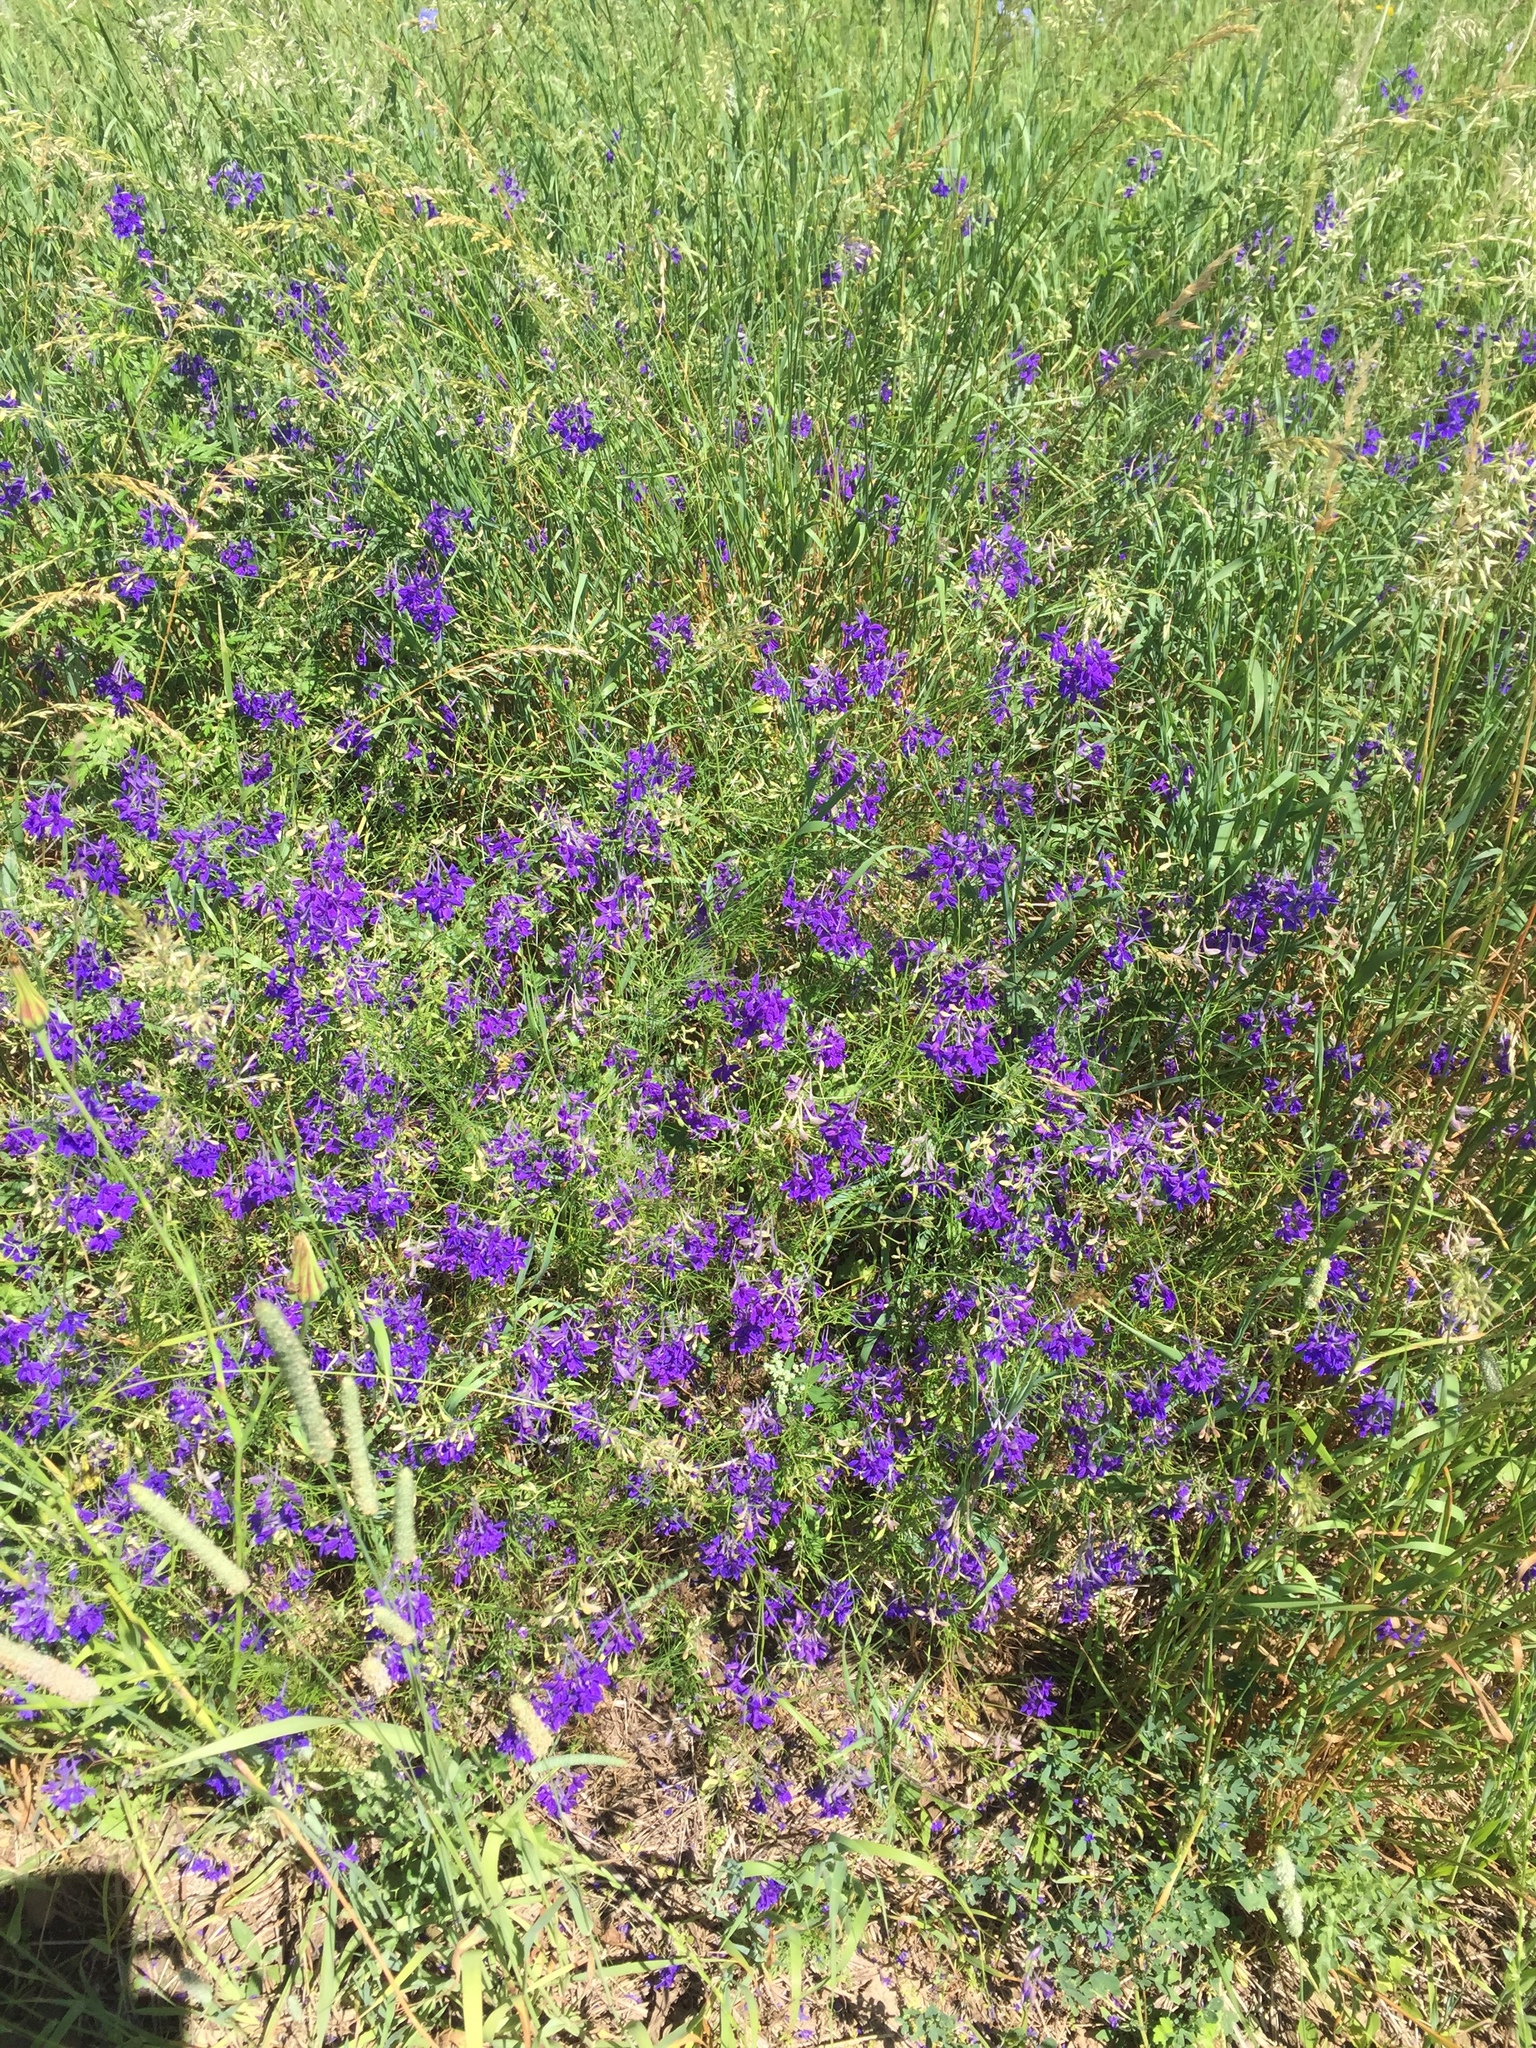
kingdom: Plantae
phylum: Tracheophyta
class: Magnoliopsida
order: Ranunculales
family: Ranunculaceae
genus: Delphinium
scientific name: Delphinium consolida
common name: Branching larkspur
